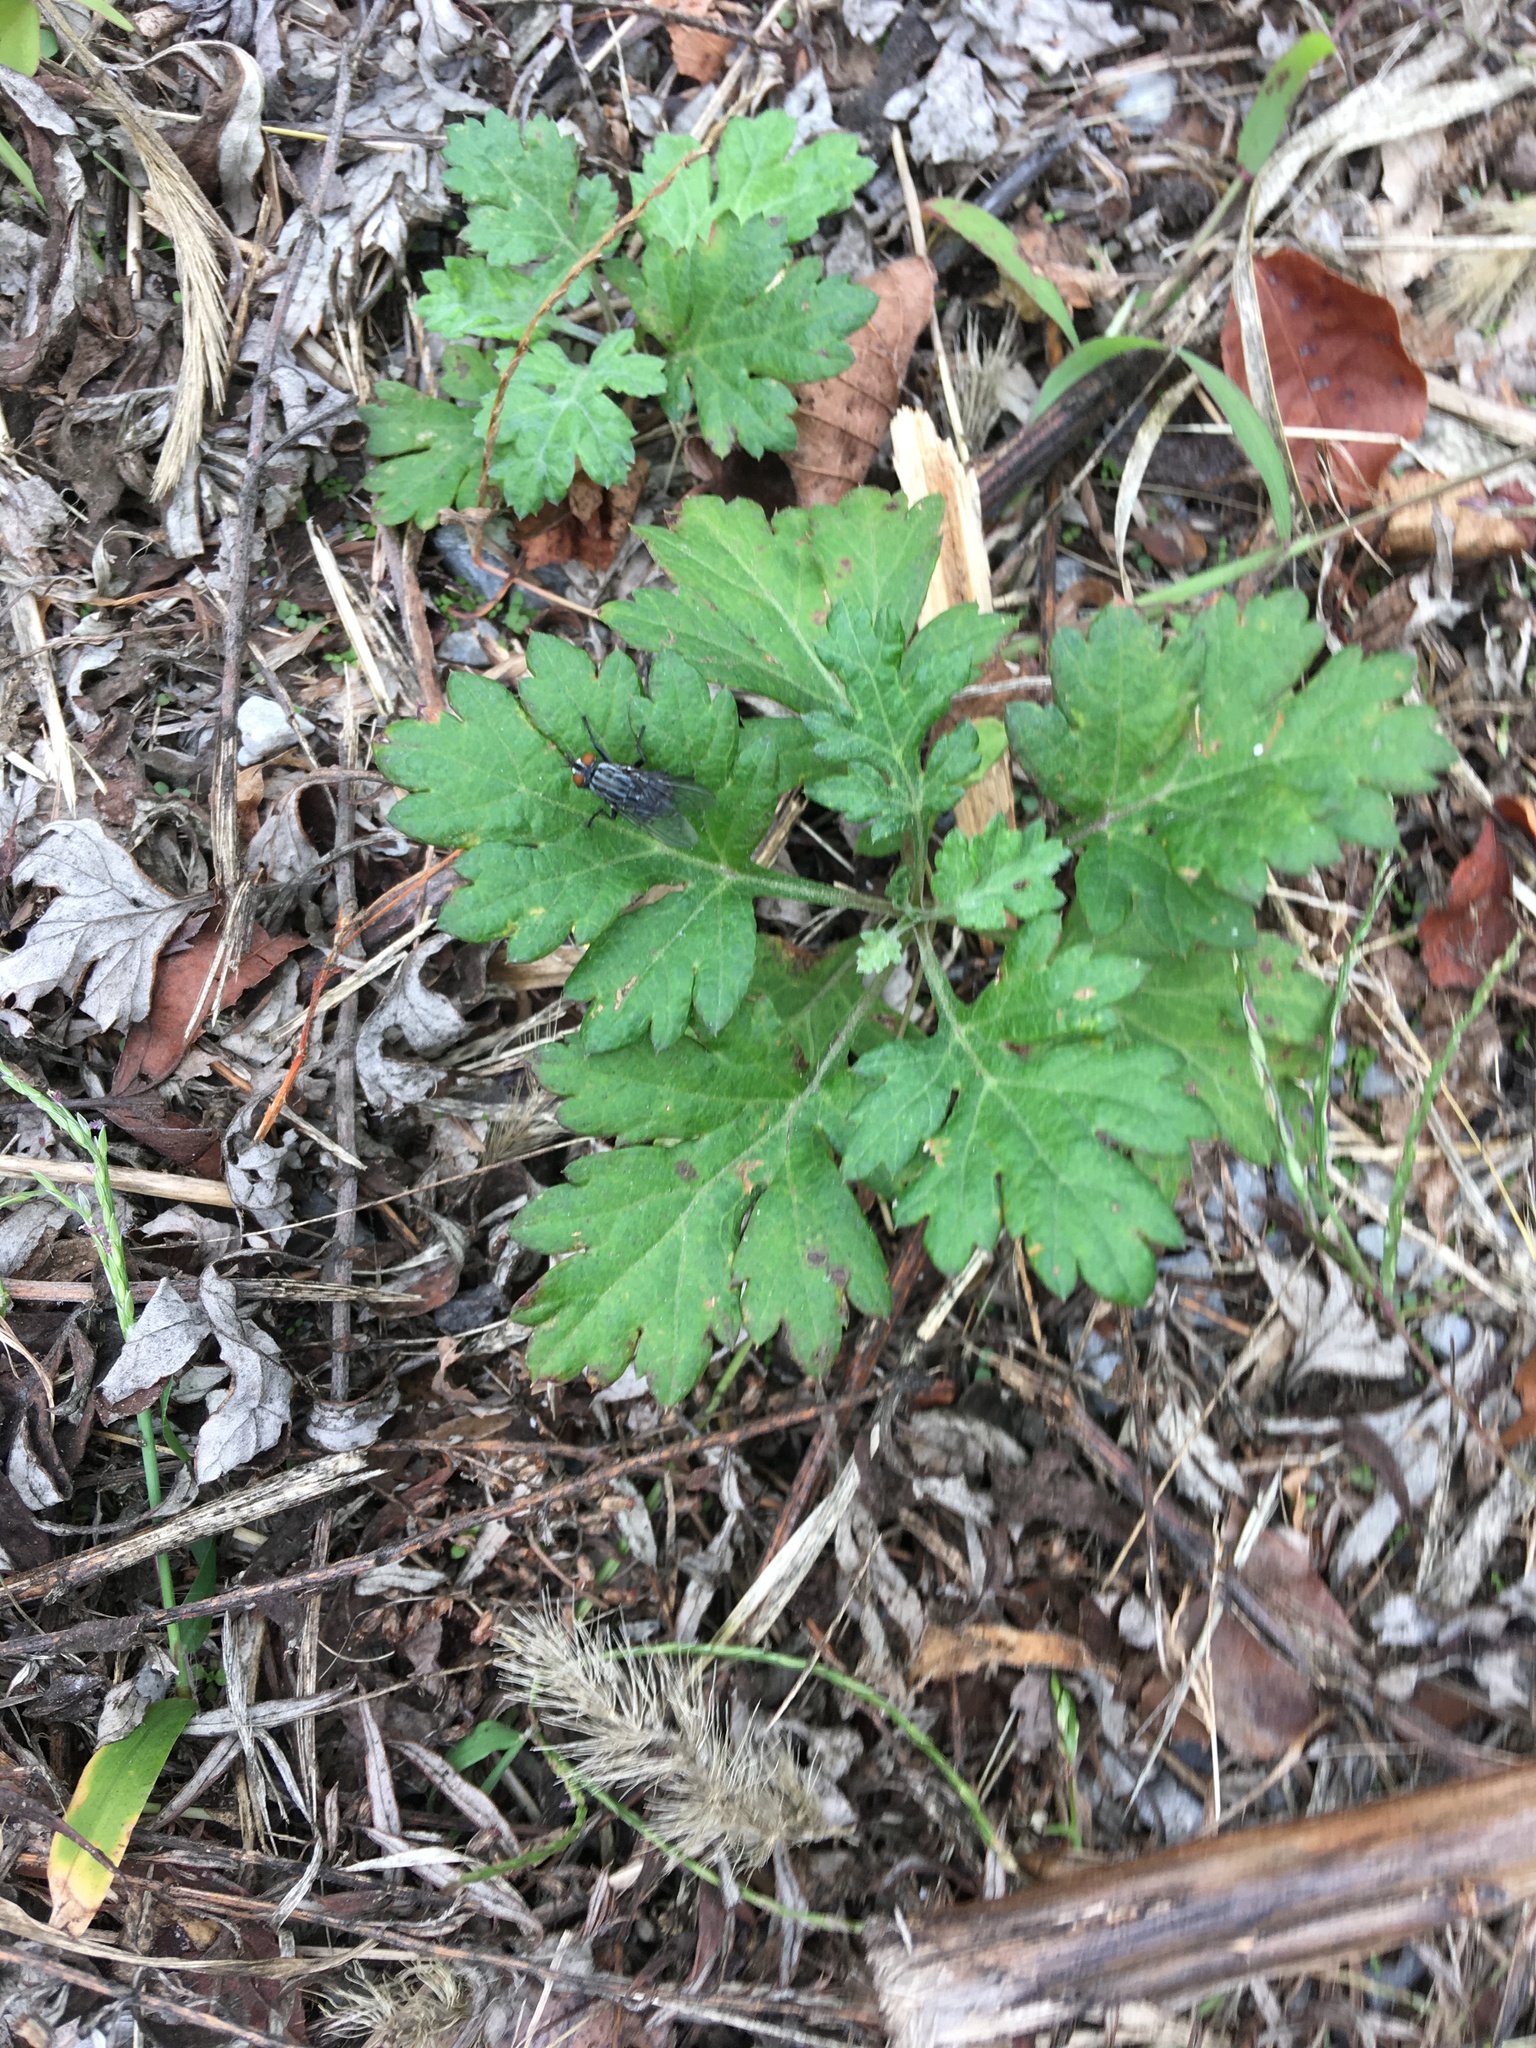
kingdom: Plantae
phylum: Tracheophyta
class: Magnoliopsida
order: Asterales
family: Asteraceae
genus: Artemisia
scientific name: Artemisia vulgaris
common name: Mugwort
